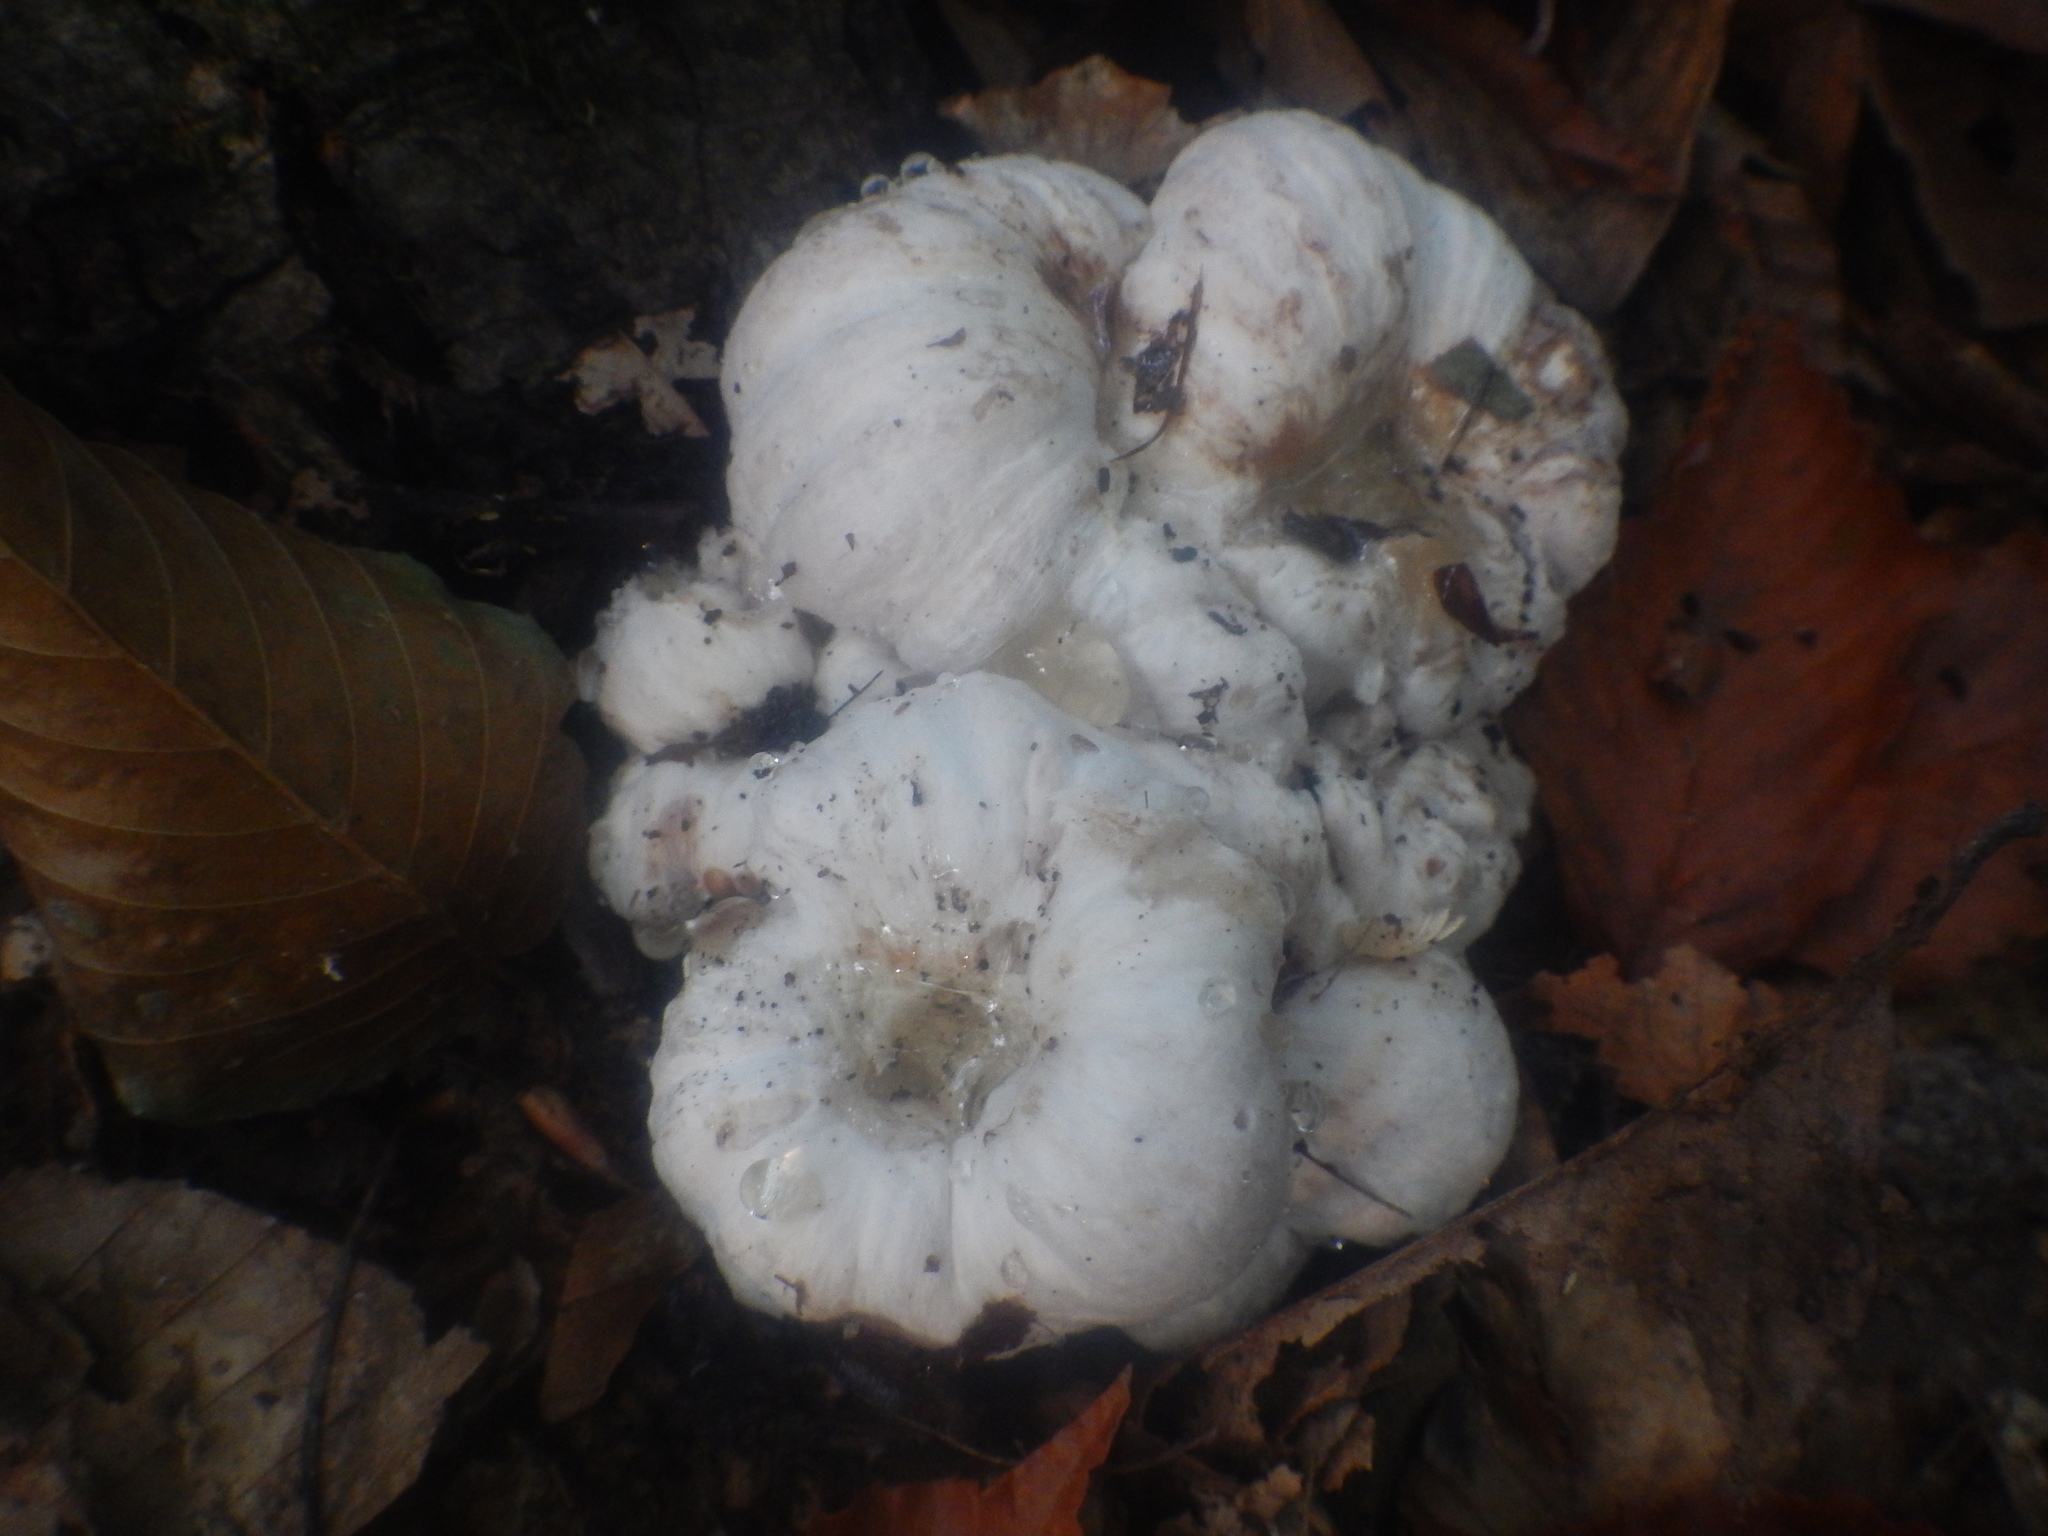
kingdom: Fungi
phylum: Basidiomycota
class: Agaricomycetes
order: Agaricales
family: Entolomataceae
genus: Entoloma
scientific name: Entoloma abortivum
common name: Aborted entoloma
